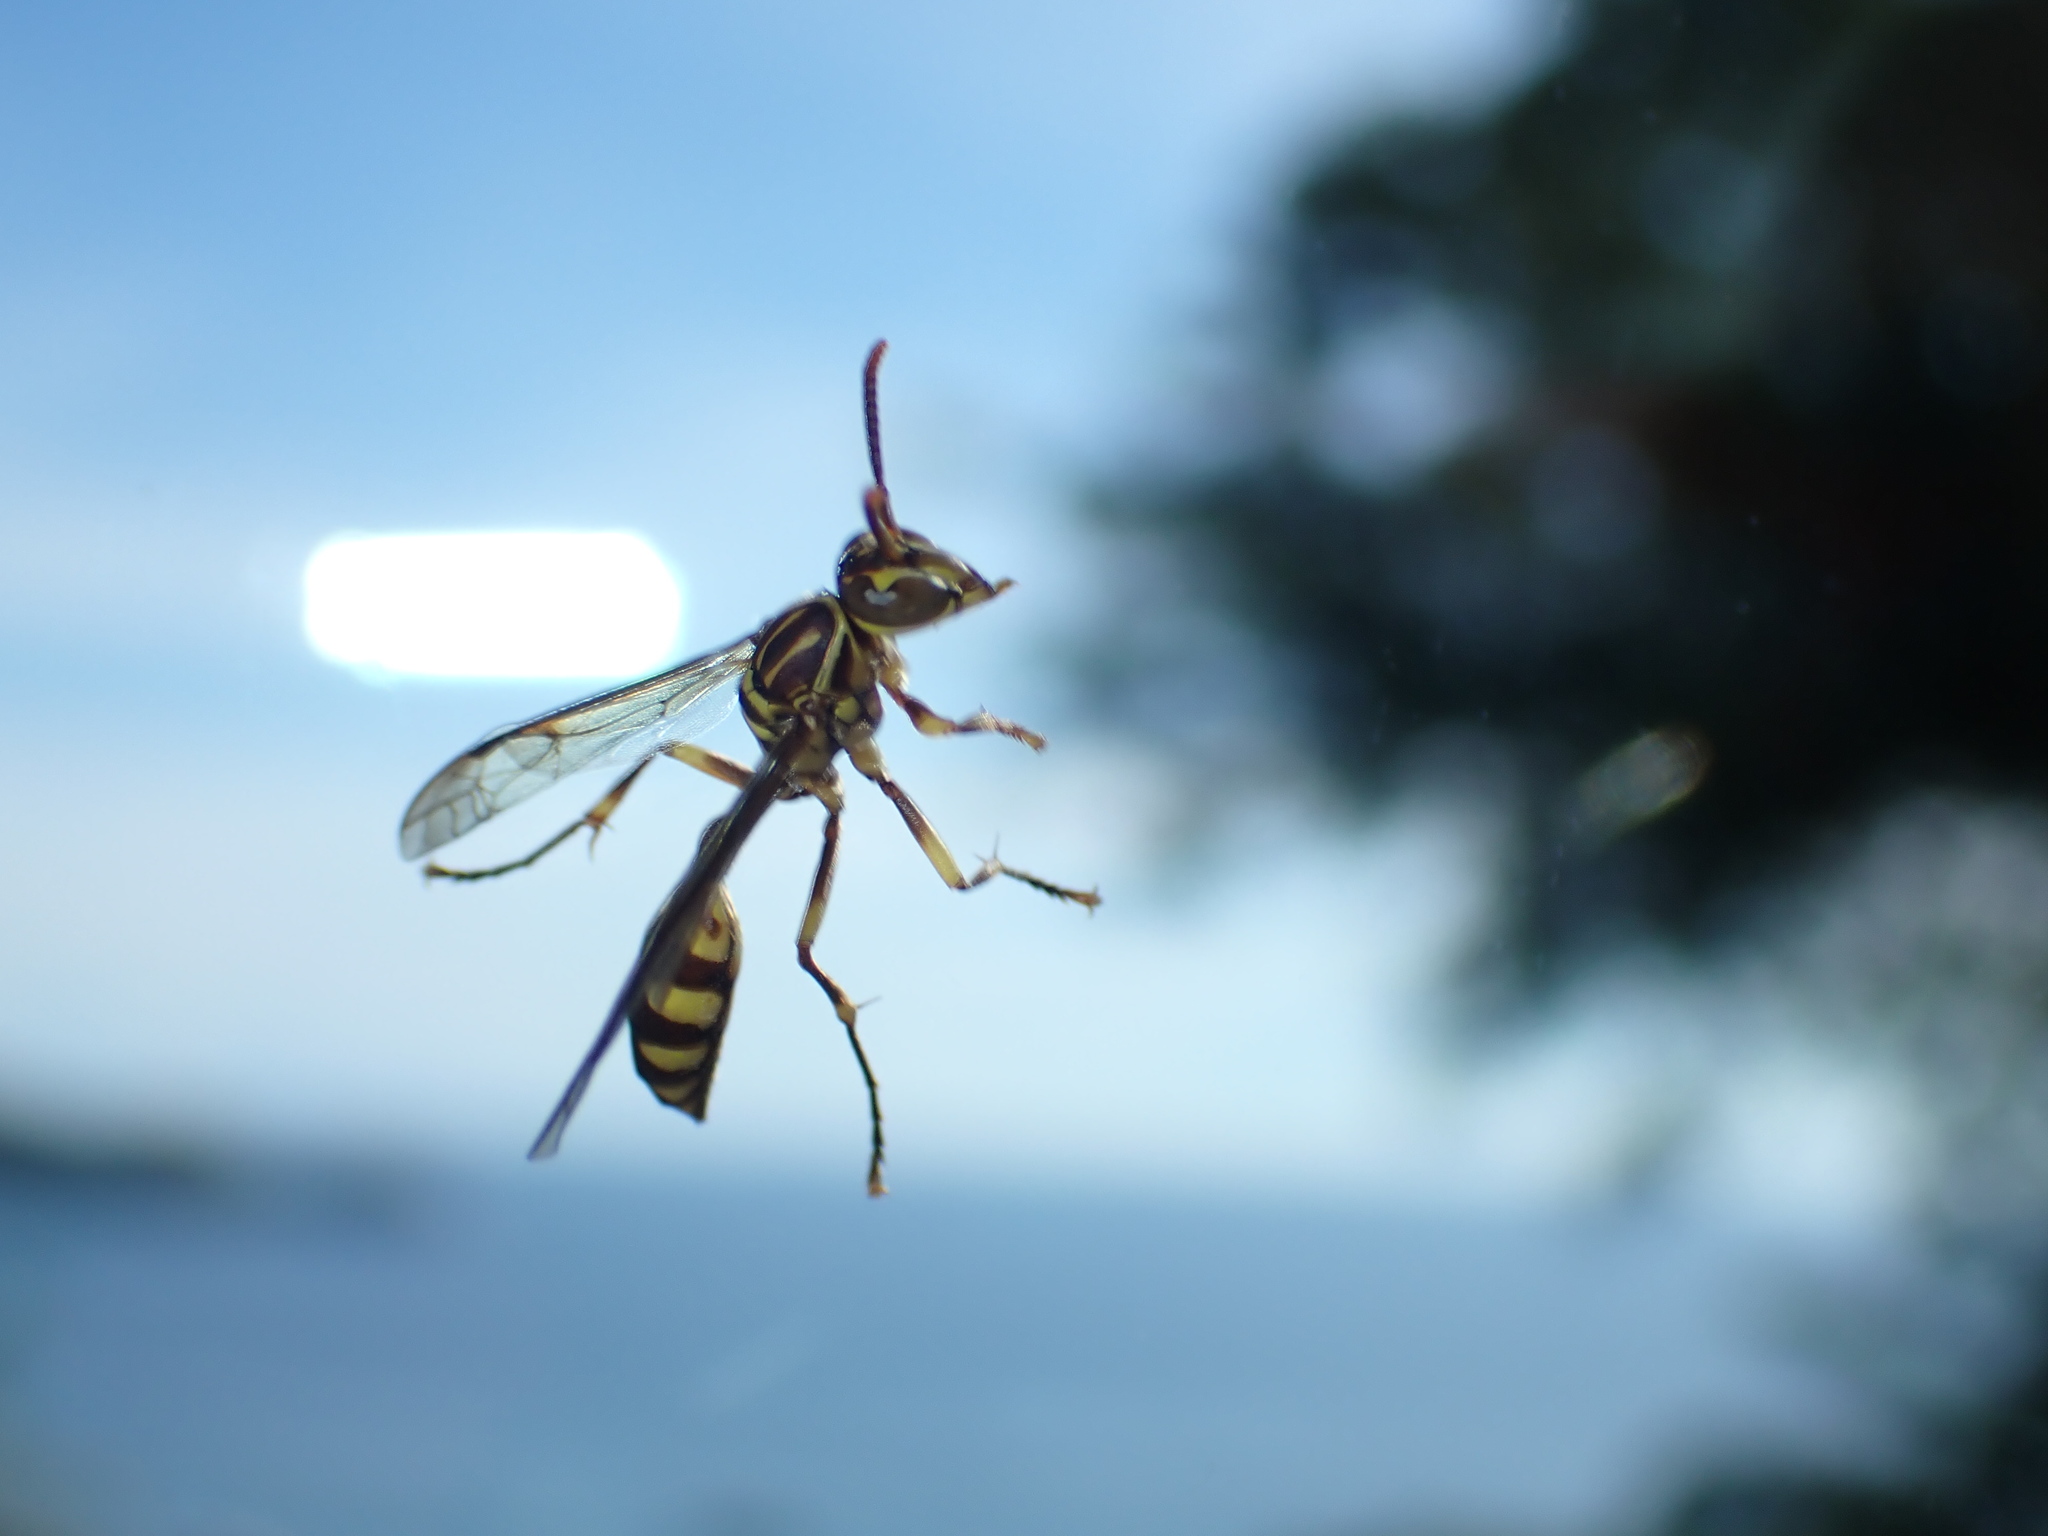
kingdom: Animalia
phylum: Arthropoda
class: Insecta
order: Hymenoptera
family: Vespidae
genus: Parapolybia
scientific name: Parapolybia varia
